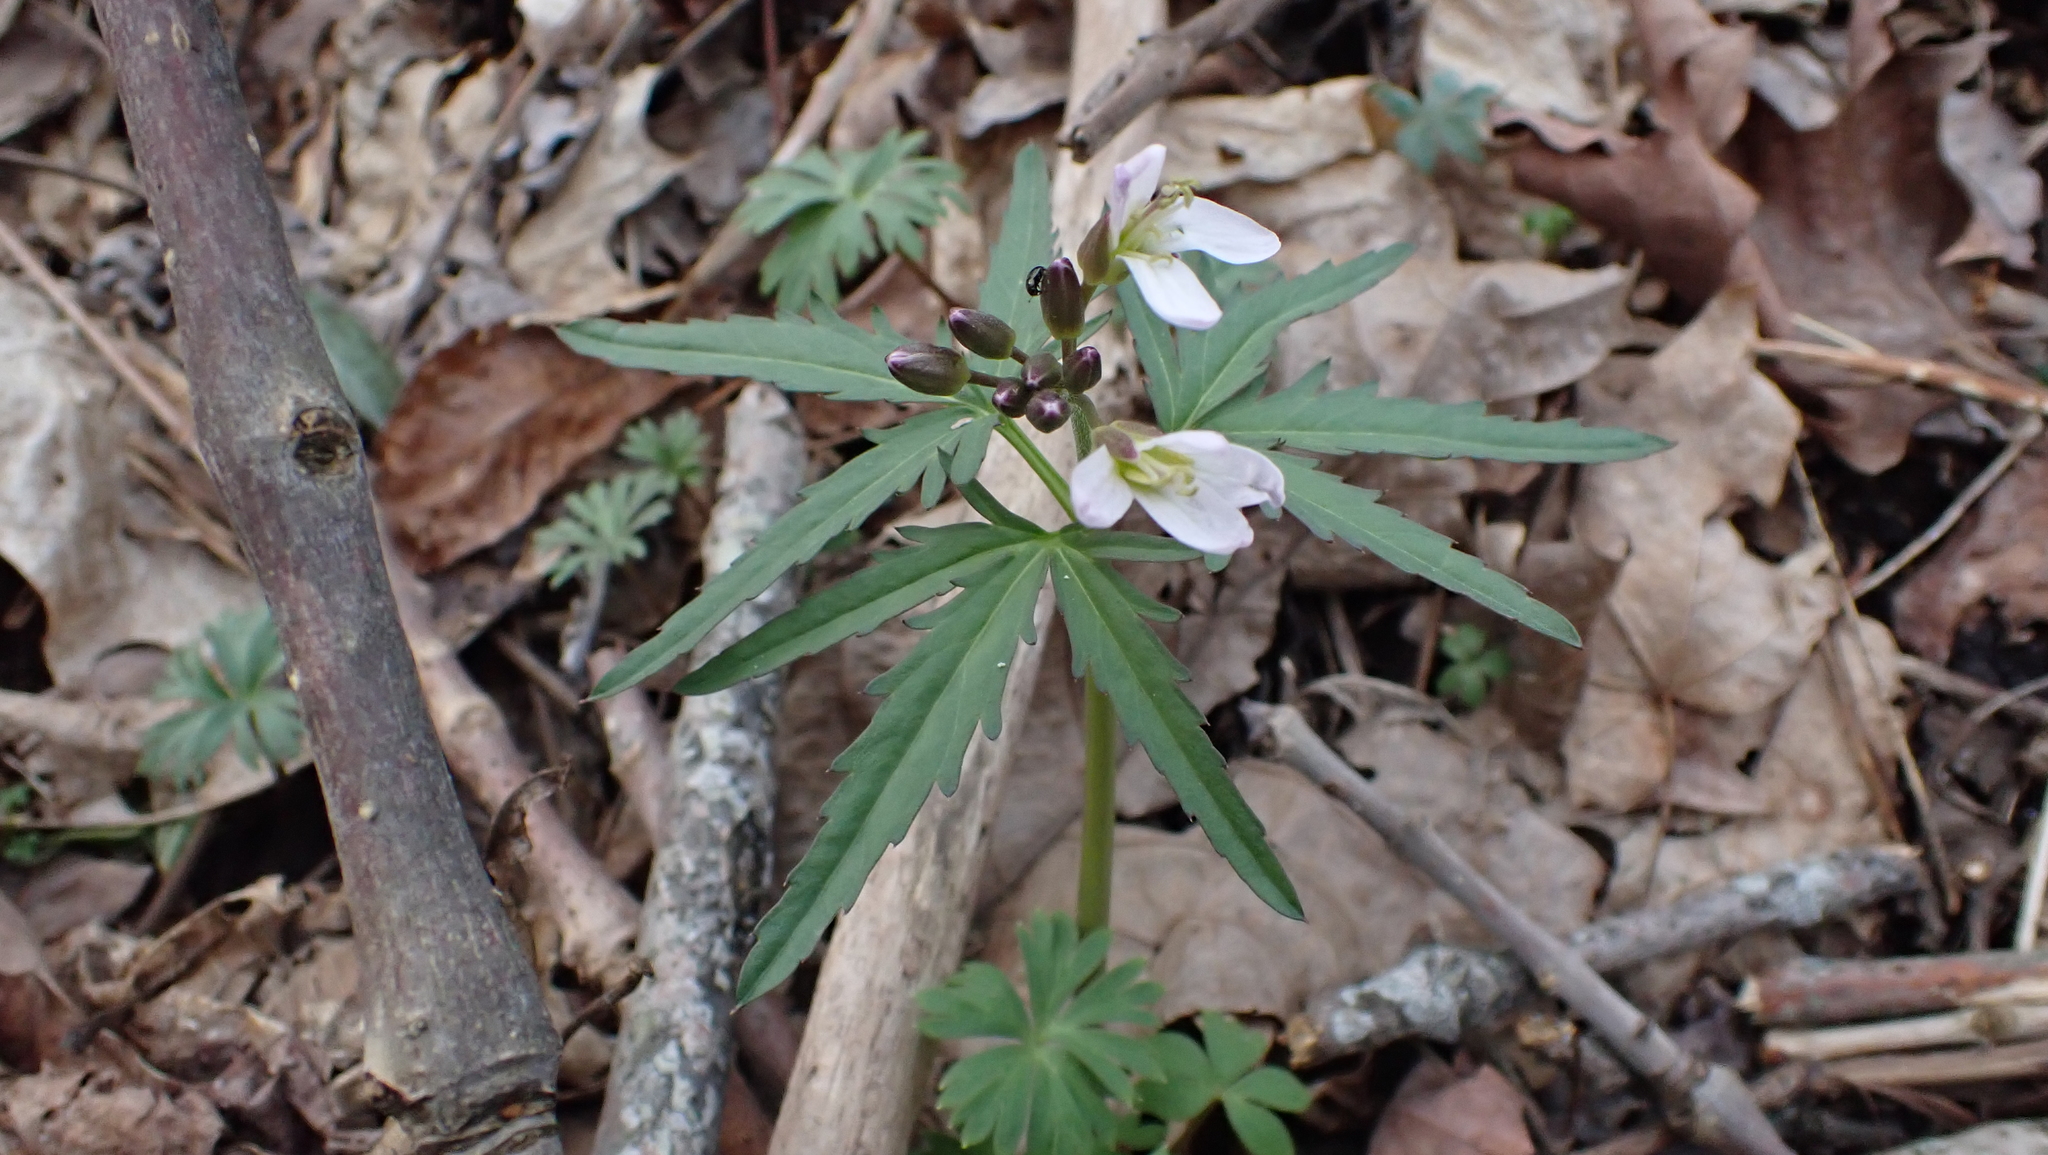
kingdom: Plantae
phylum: Tracheophyta
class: Magnoliopsida
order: Brassicales
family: Brassicaceae
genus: Cardamine
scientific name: Cardamine concatenata
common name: Cut-leaf toothcup
